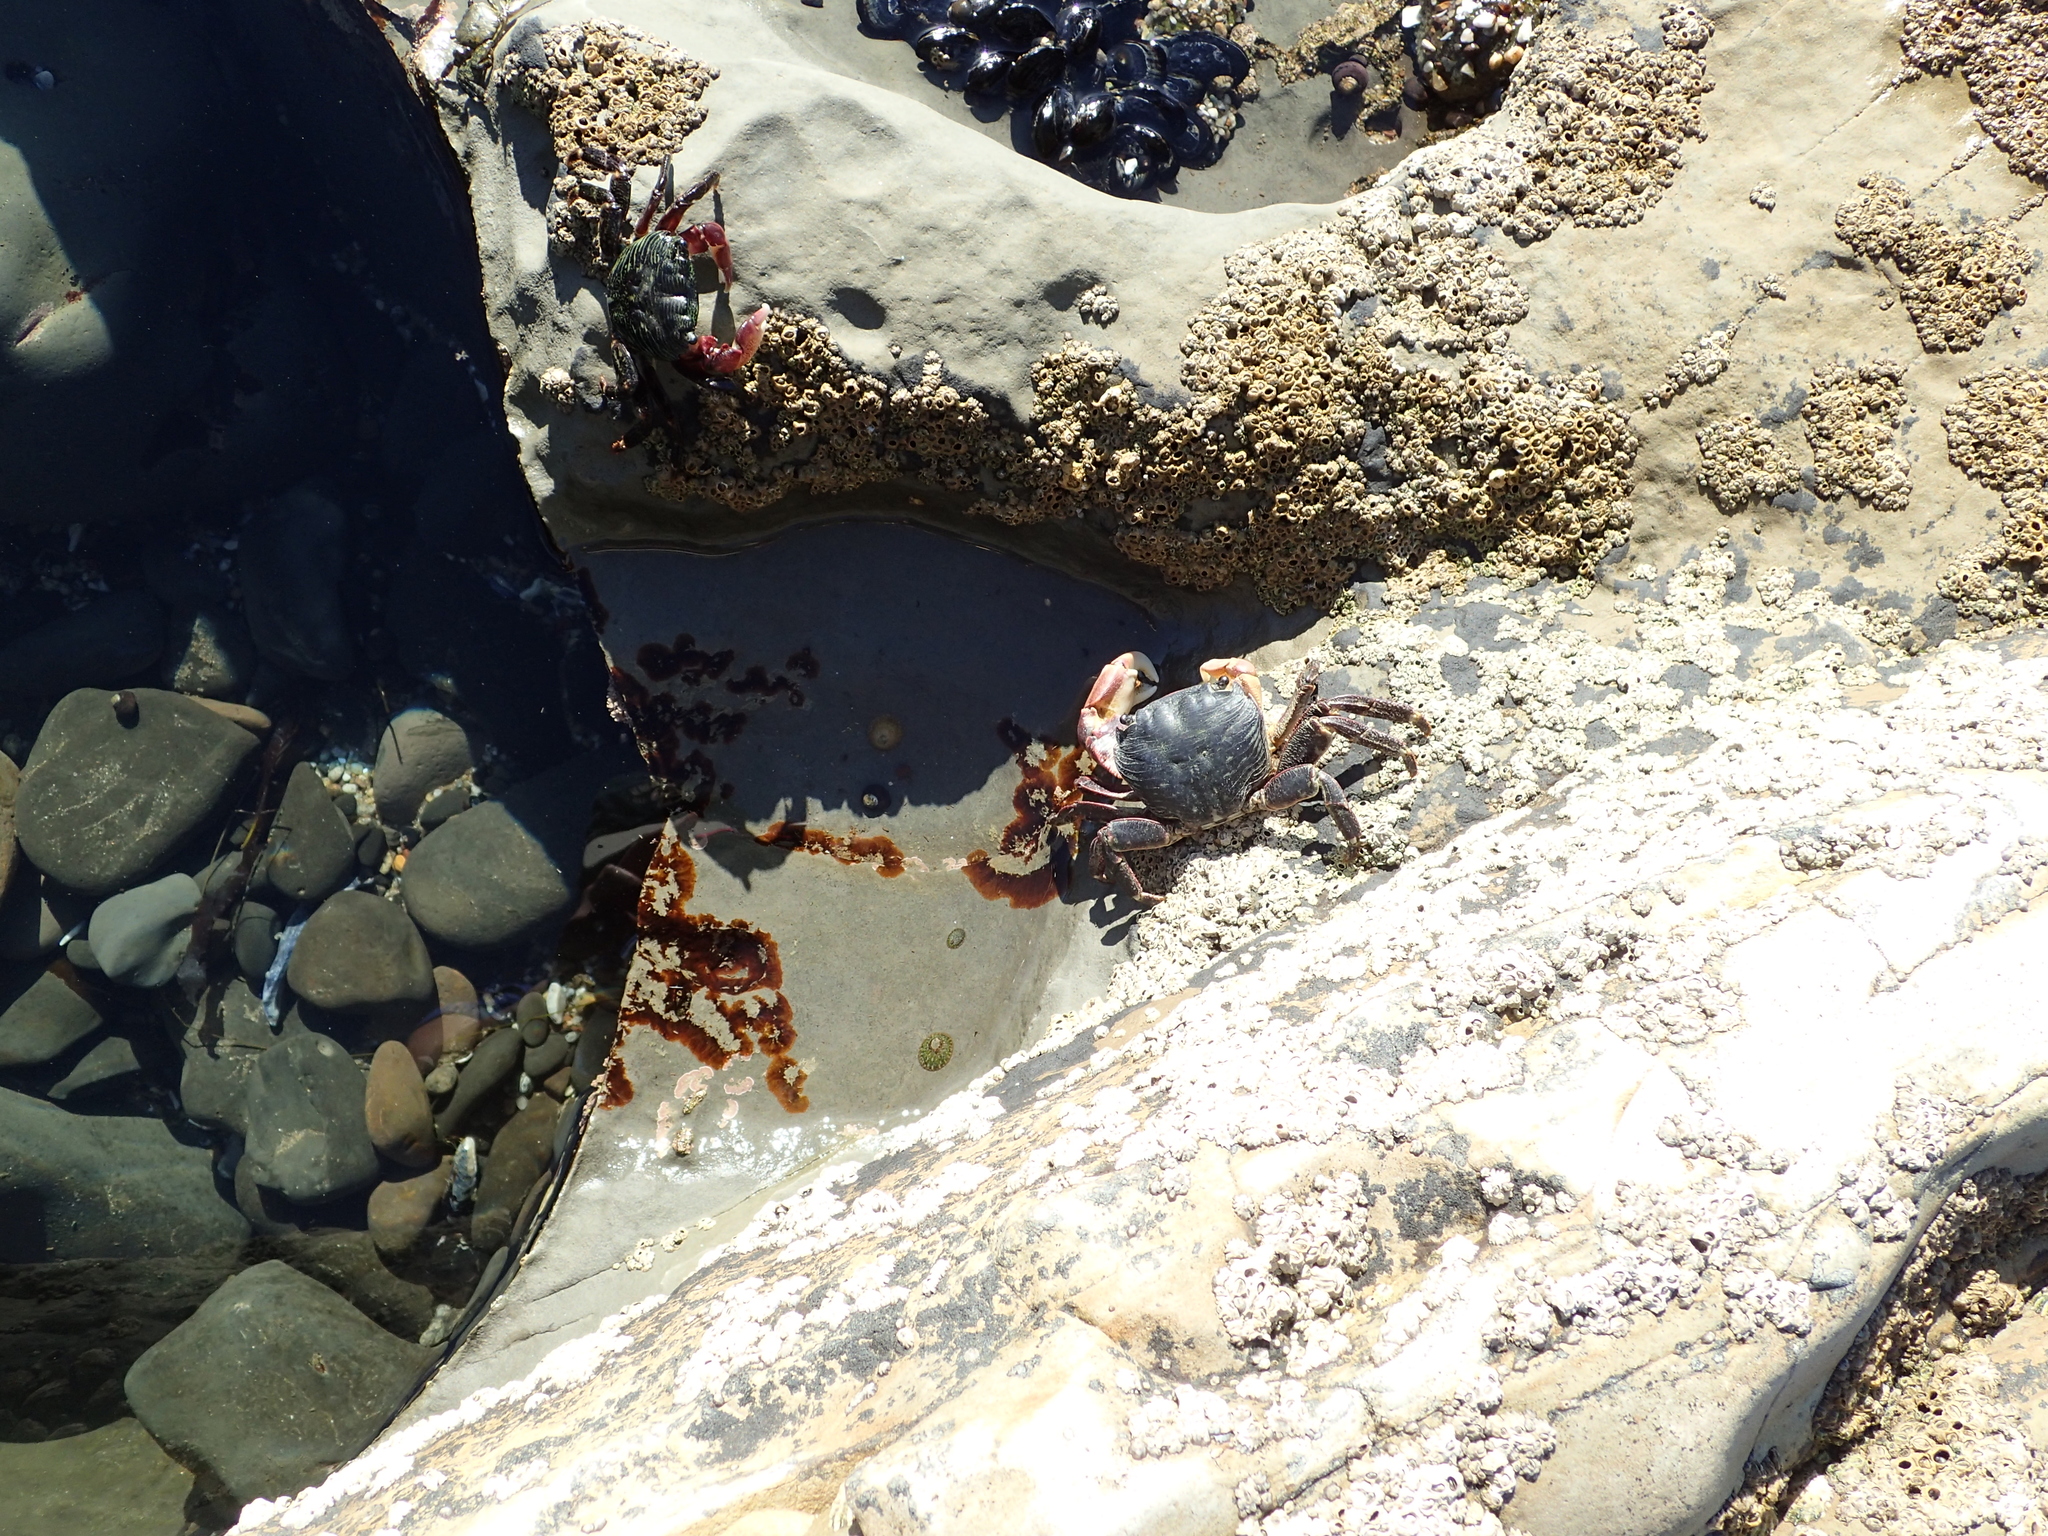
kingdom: Animalia
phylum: Arthropoda
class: Malacostraca
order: Decapoda
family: Grapsidae
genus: Pachygrapsus
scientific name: Pachygrapsus crassipes
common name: Striped shore crab
